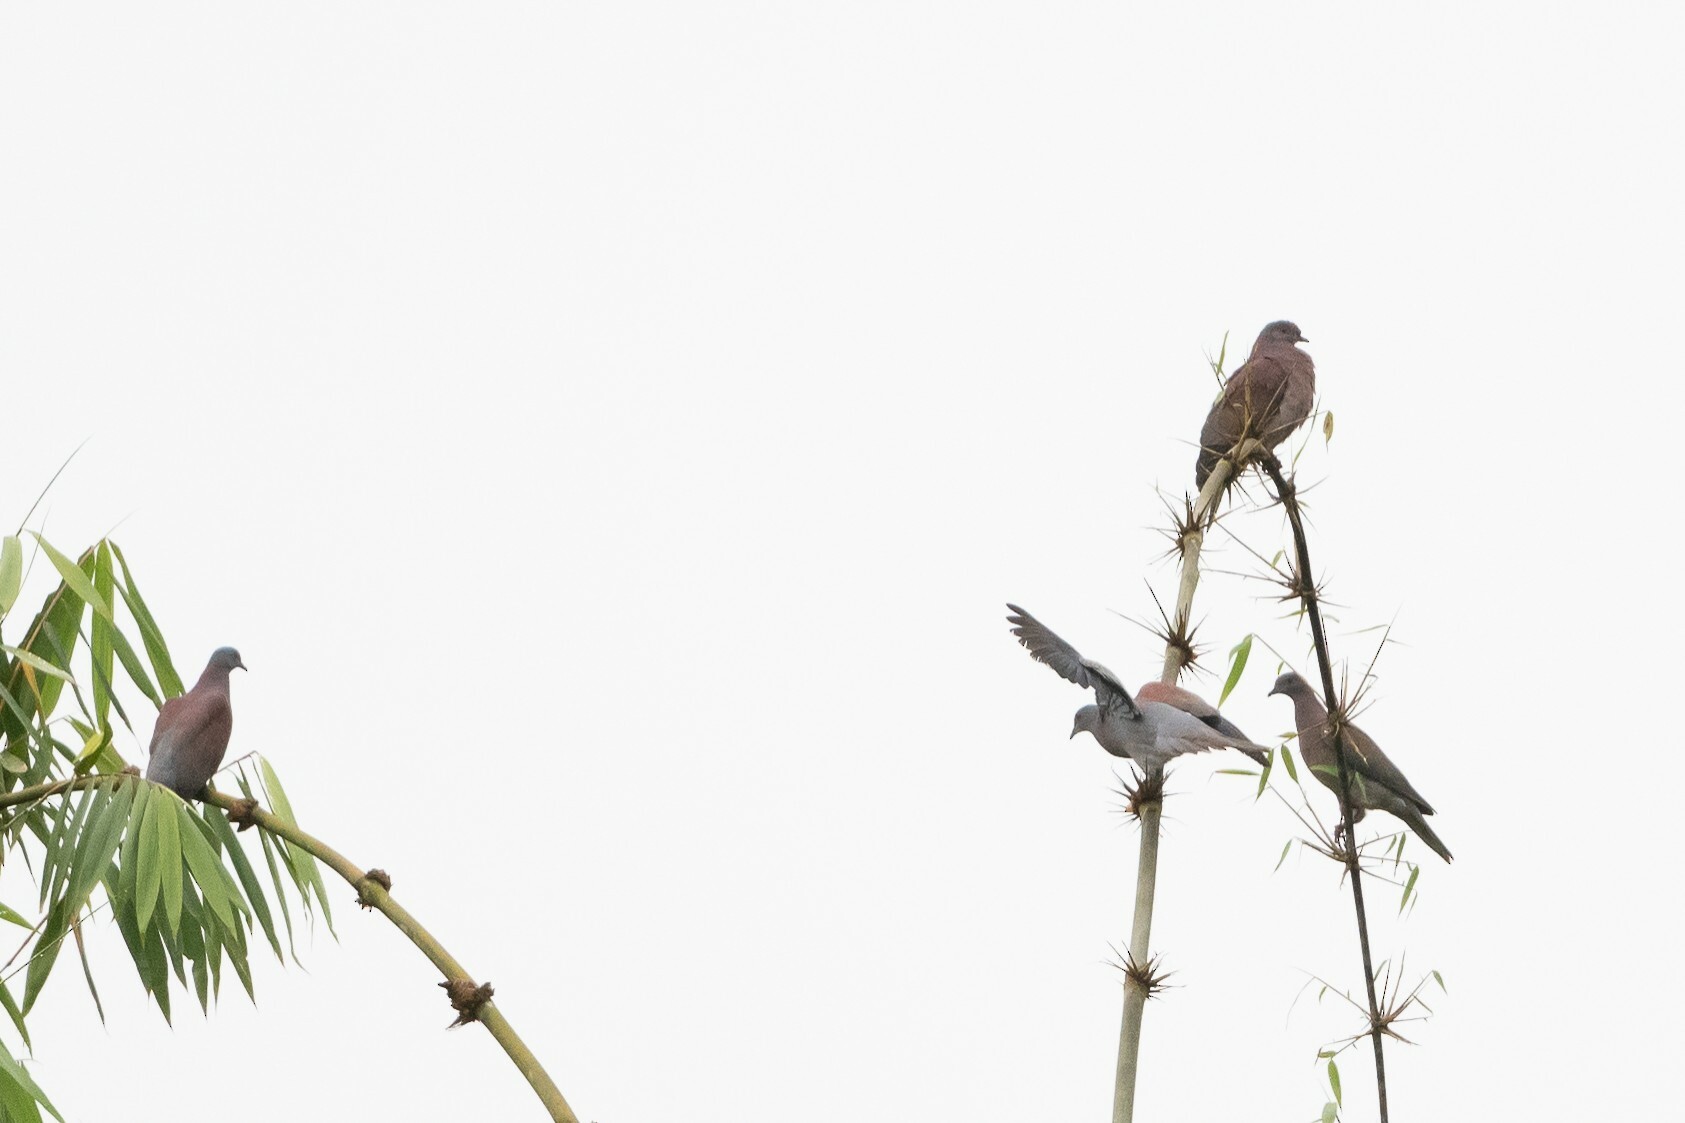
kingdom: Animalia
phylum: Chordata
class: Aves
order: Columbiformes
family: Columbidae
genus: Patagioenas
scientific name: Patagioenas cayennensis
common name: Pale-vented pigeon
